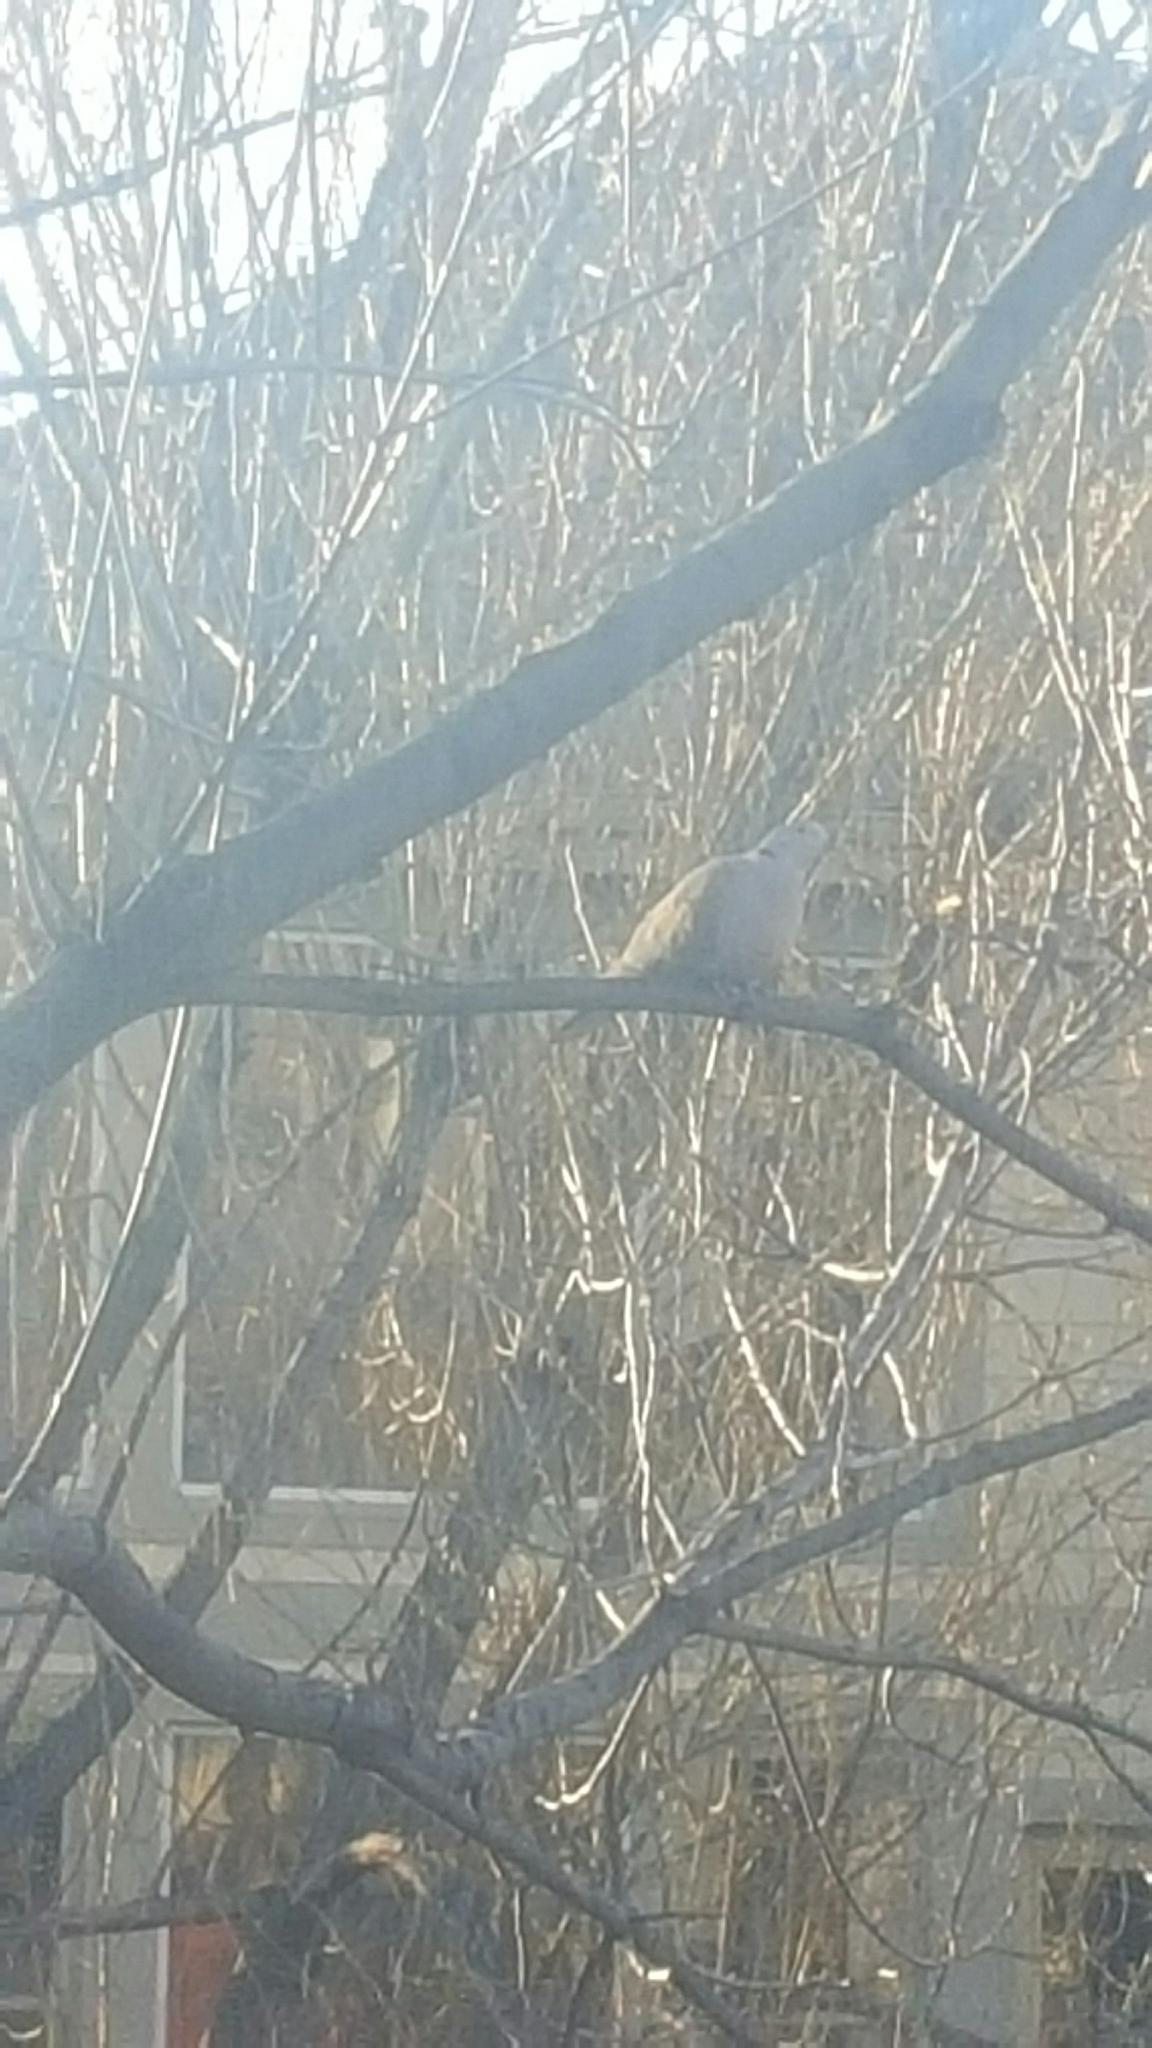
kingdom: Animalia
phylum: Chordata
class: Aves
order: Columbiformes
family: Columbidae
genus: Streptopelia
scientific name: Streptopelia decaocto
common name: Eurasian collared dove
